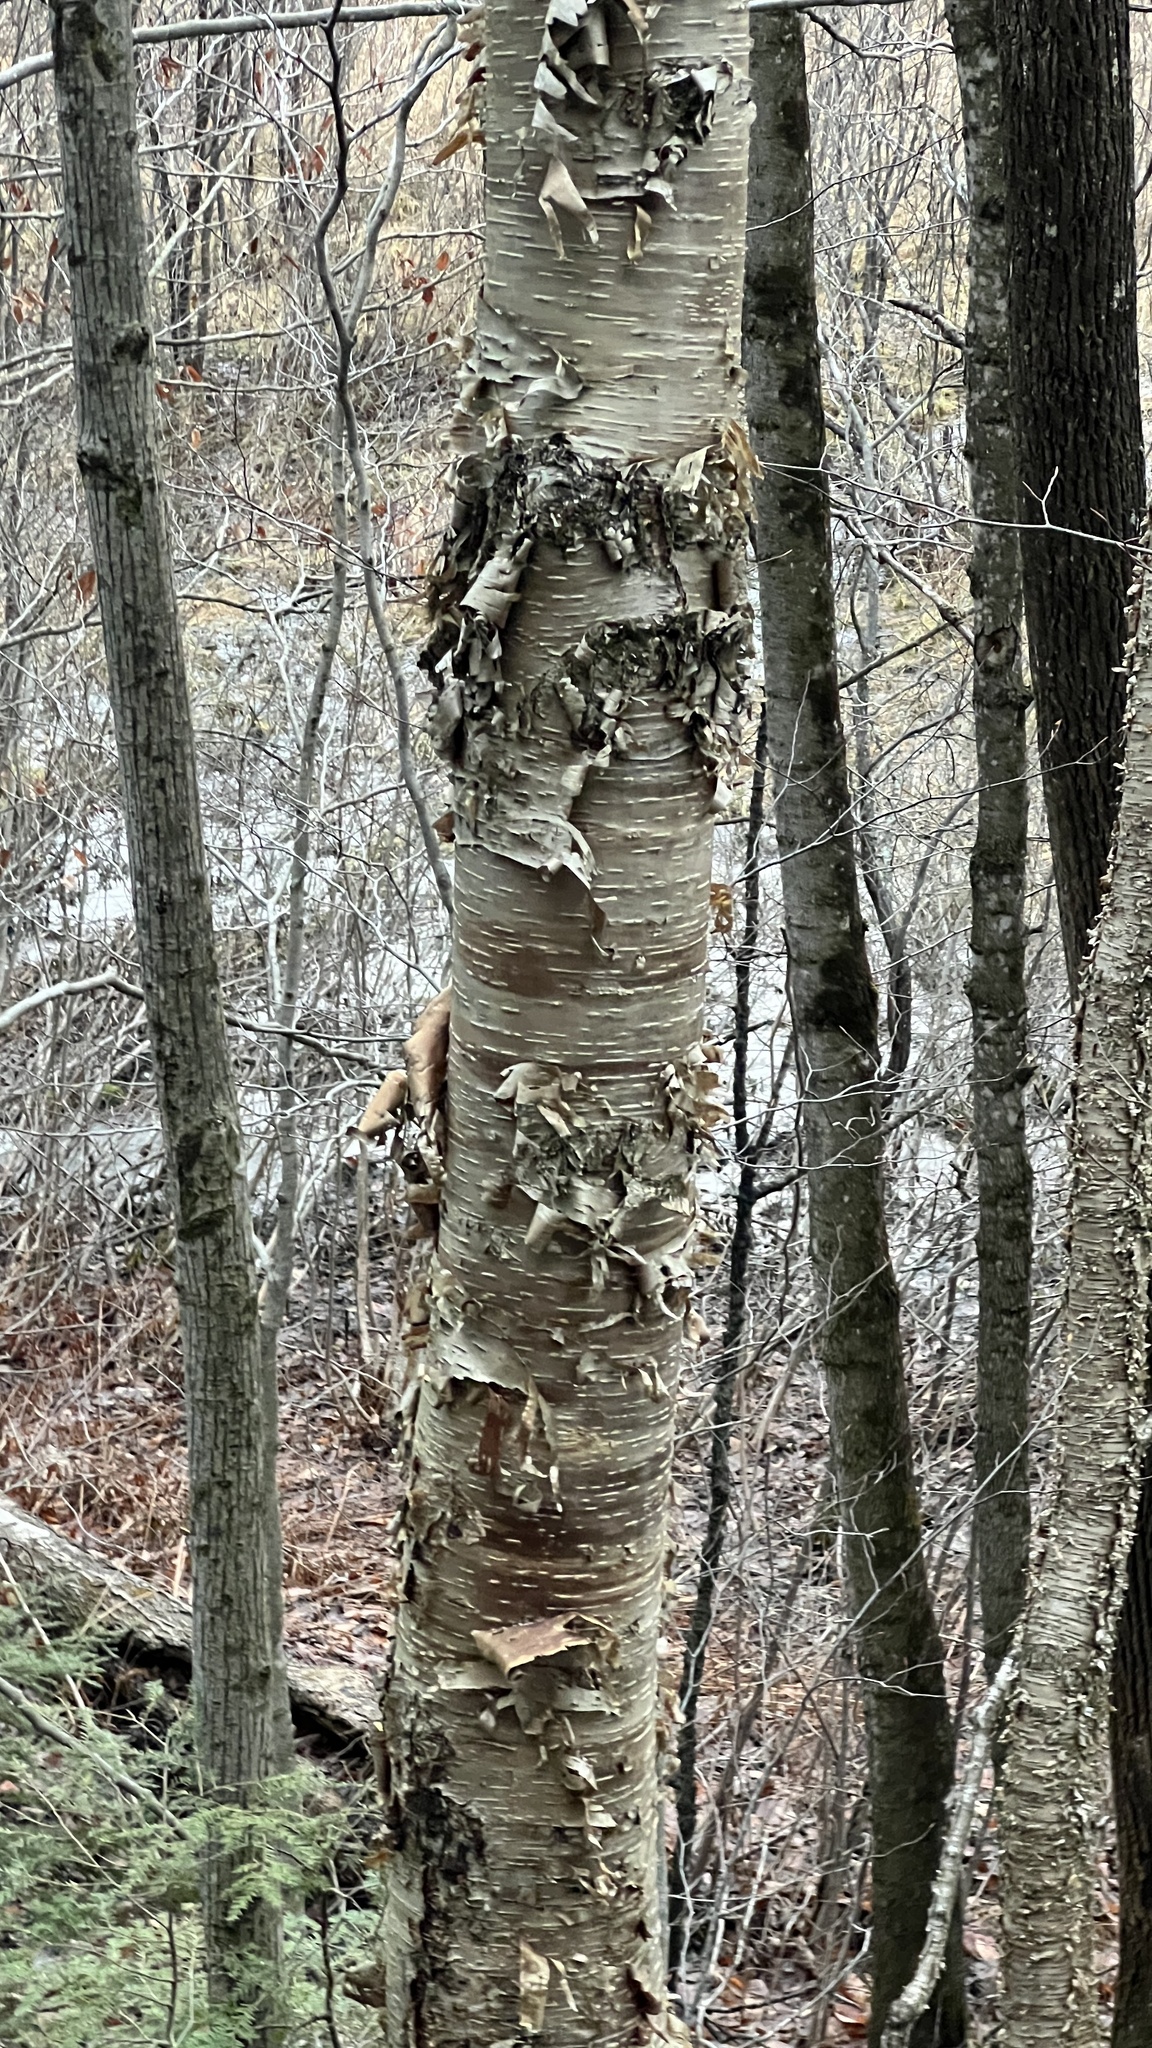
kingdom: Plantae
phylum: Tracheophyta
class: Magnoliopsida
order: Fagales
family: Betulaceae
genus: Betula
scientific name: Betula alleghaniensis
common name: Yellow birch
